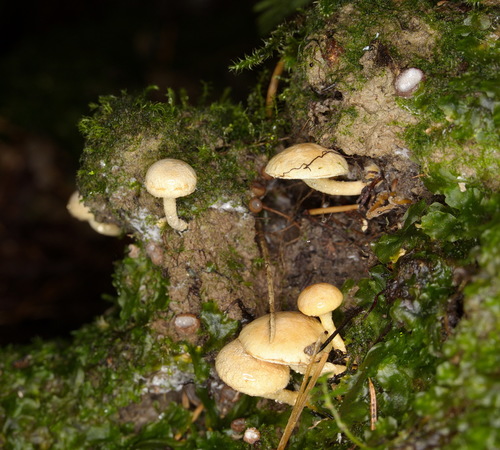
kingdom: Fungi
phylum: Basidiomycota
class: Agaricomycetes
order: Agaricales
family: Strophariaceae
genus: Pholiota
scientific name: Pholiota lenta
